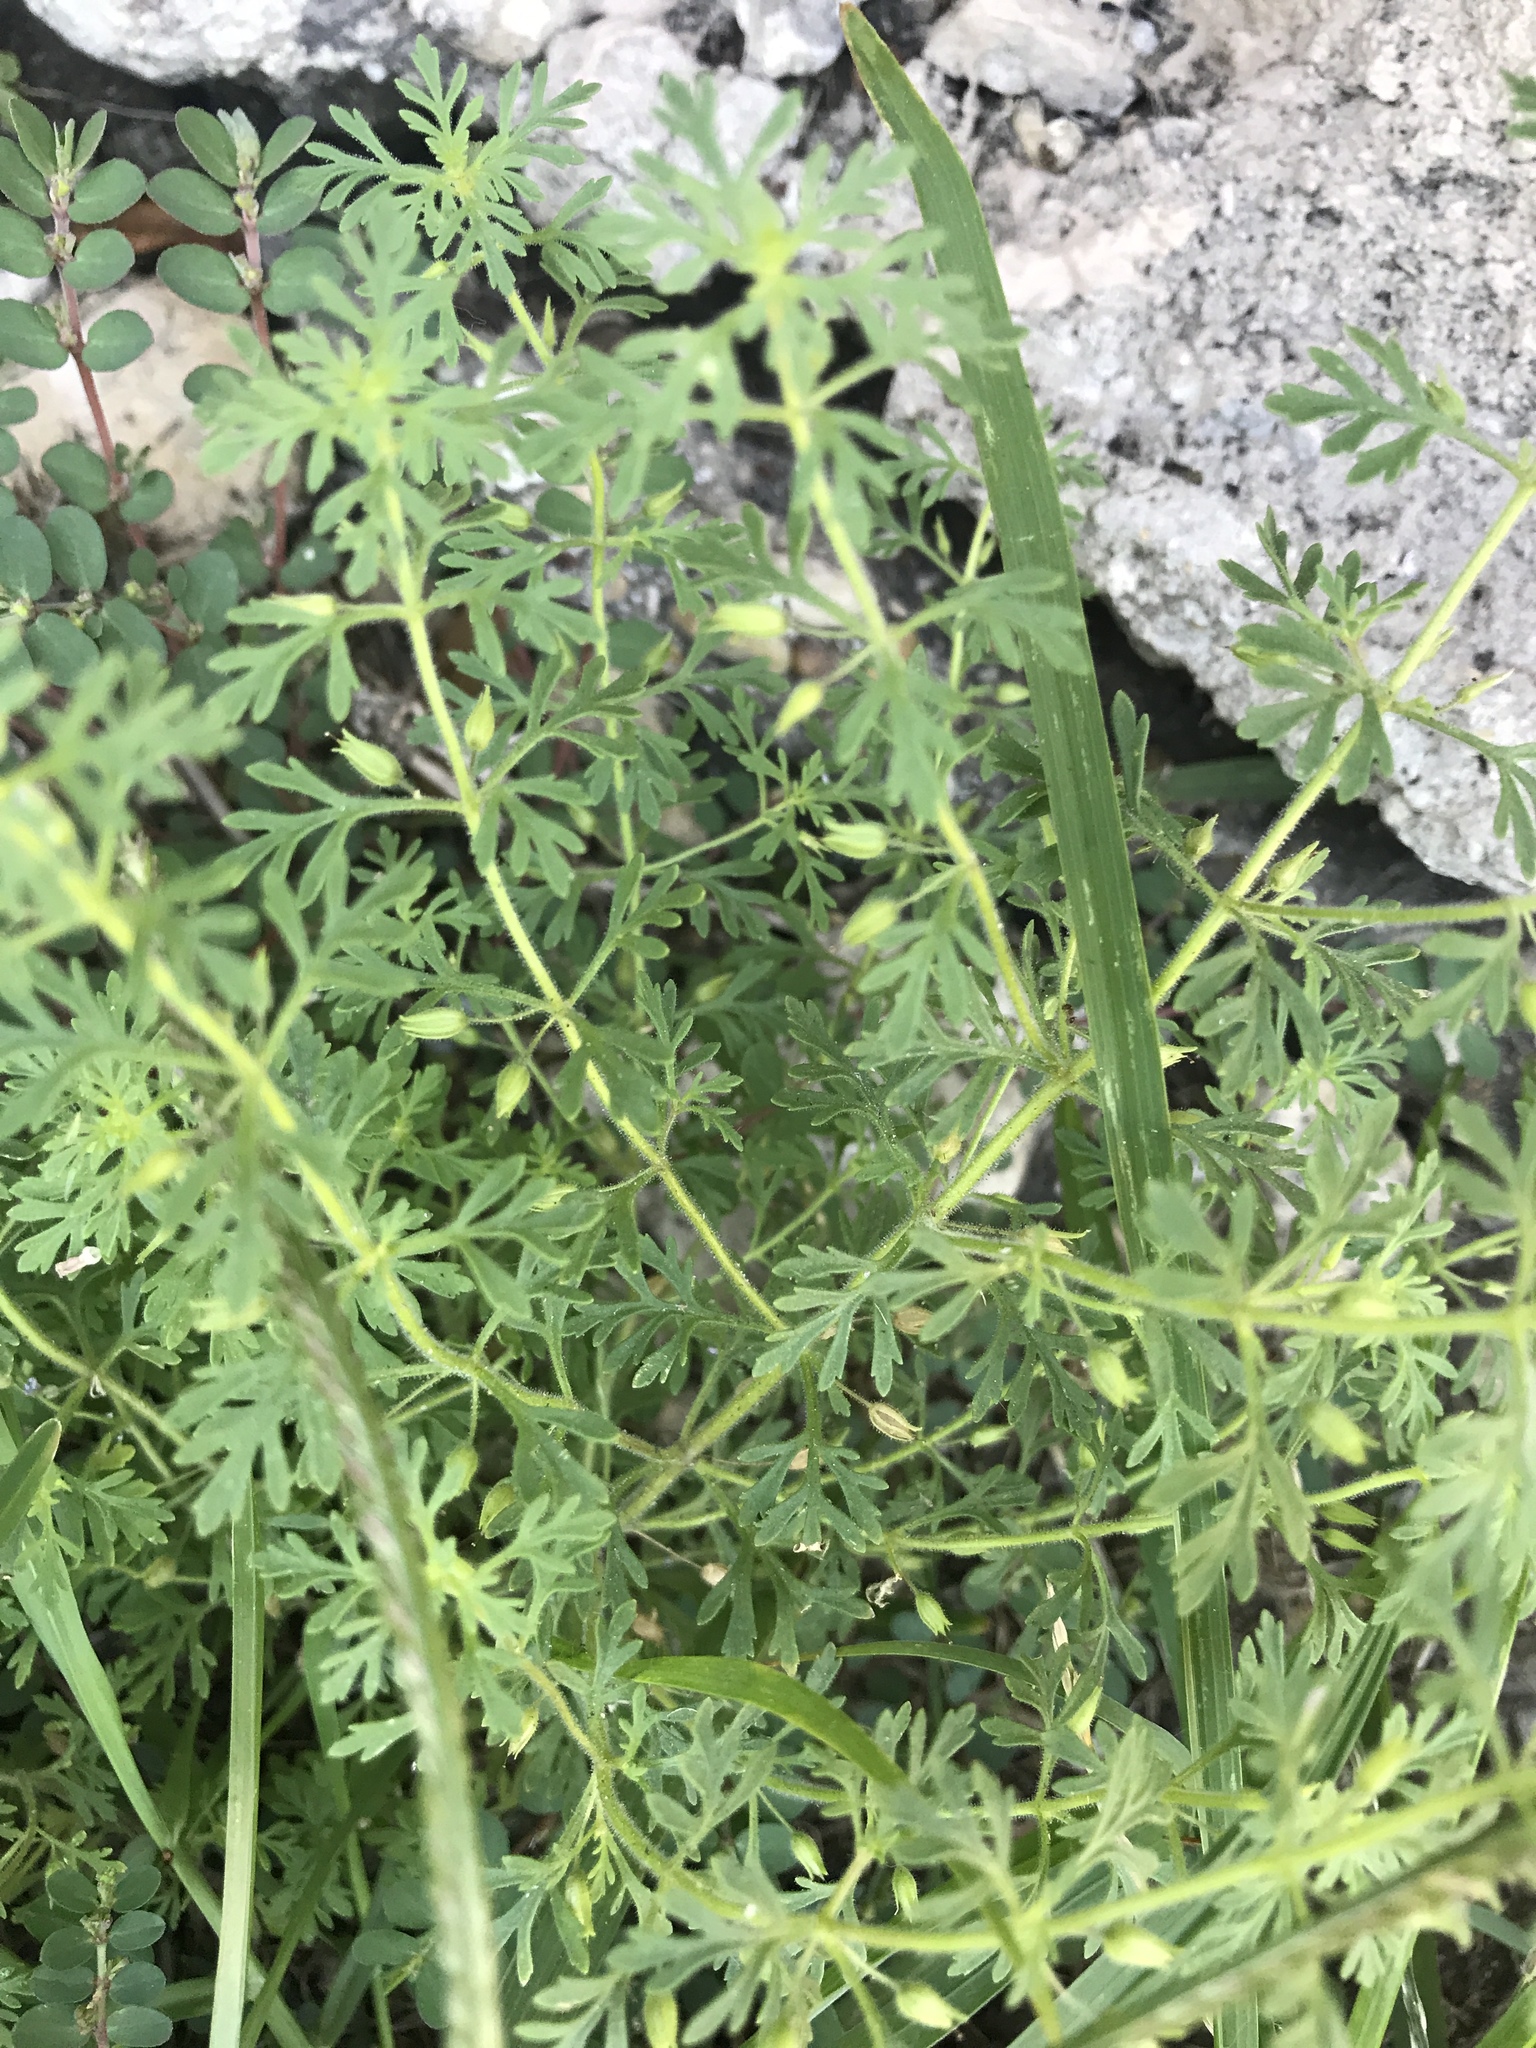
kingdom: Plantae
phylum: Tracheophyta
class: Magnoliopsida
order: Lamiales
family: Plantaginaceae
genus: Leucospora
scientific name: Leucospora multifida
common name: Narrow-leaf paleseed
